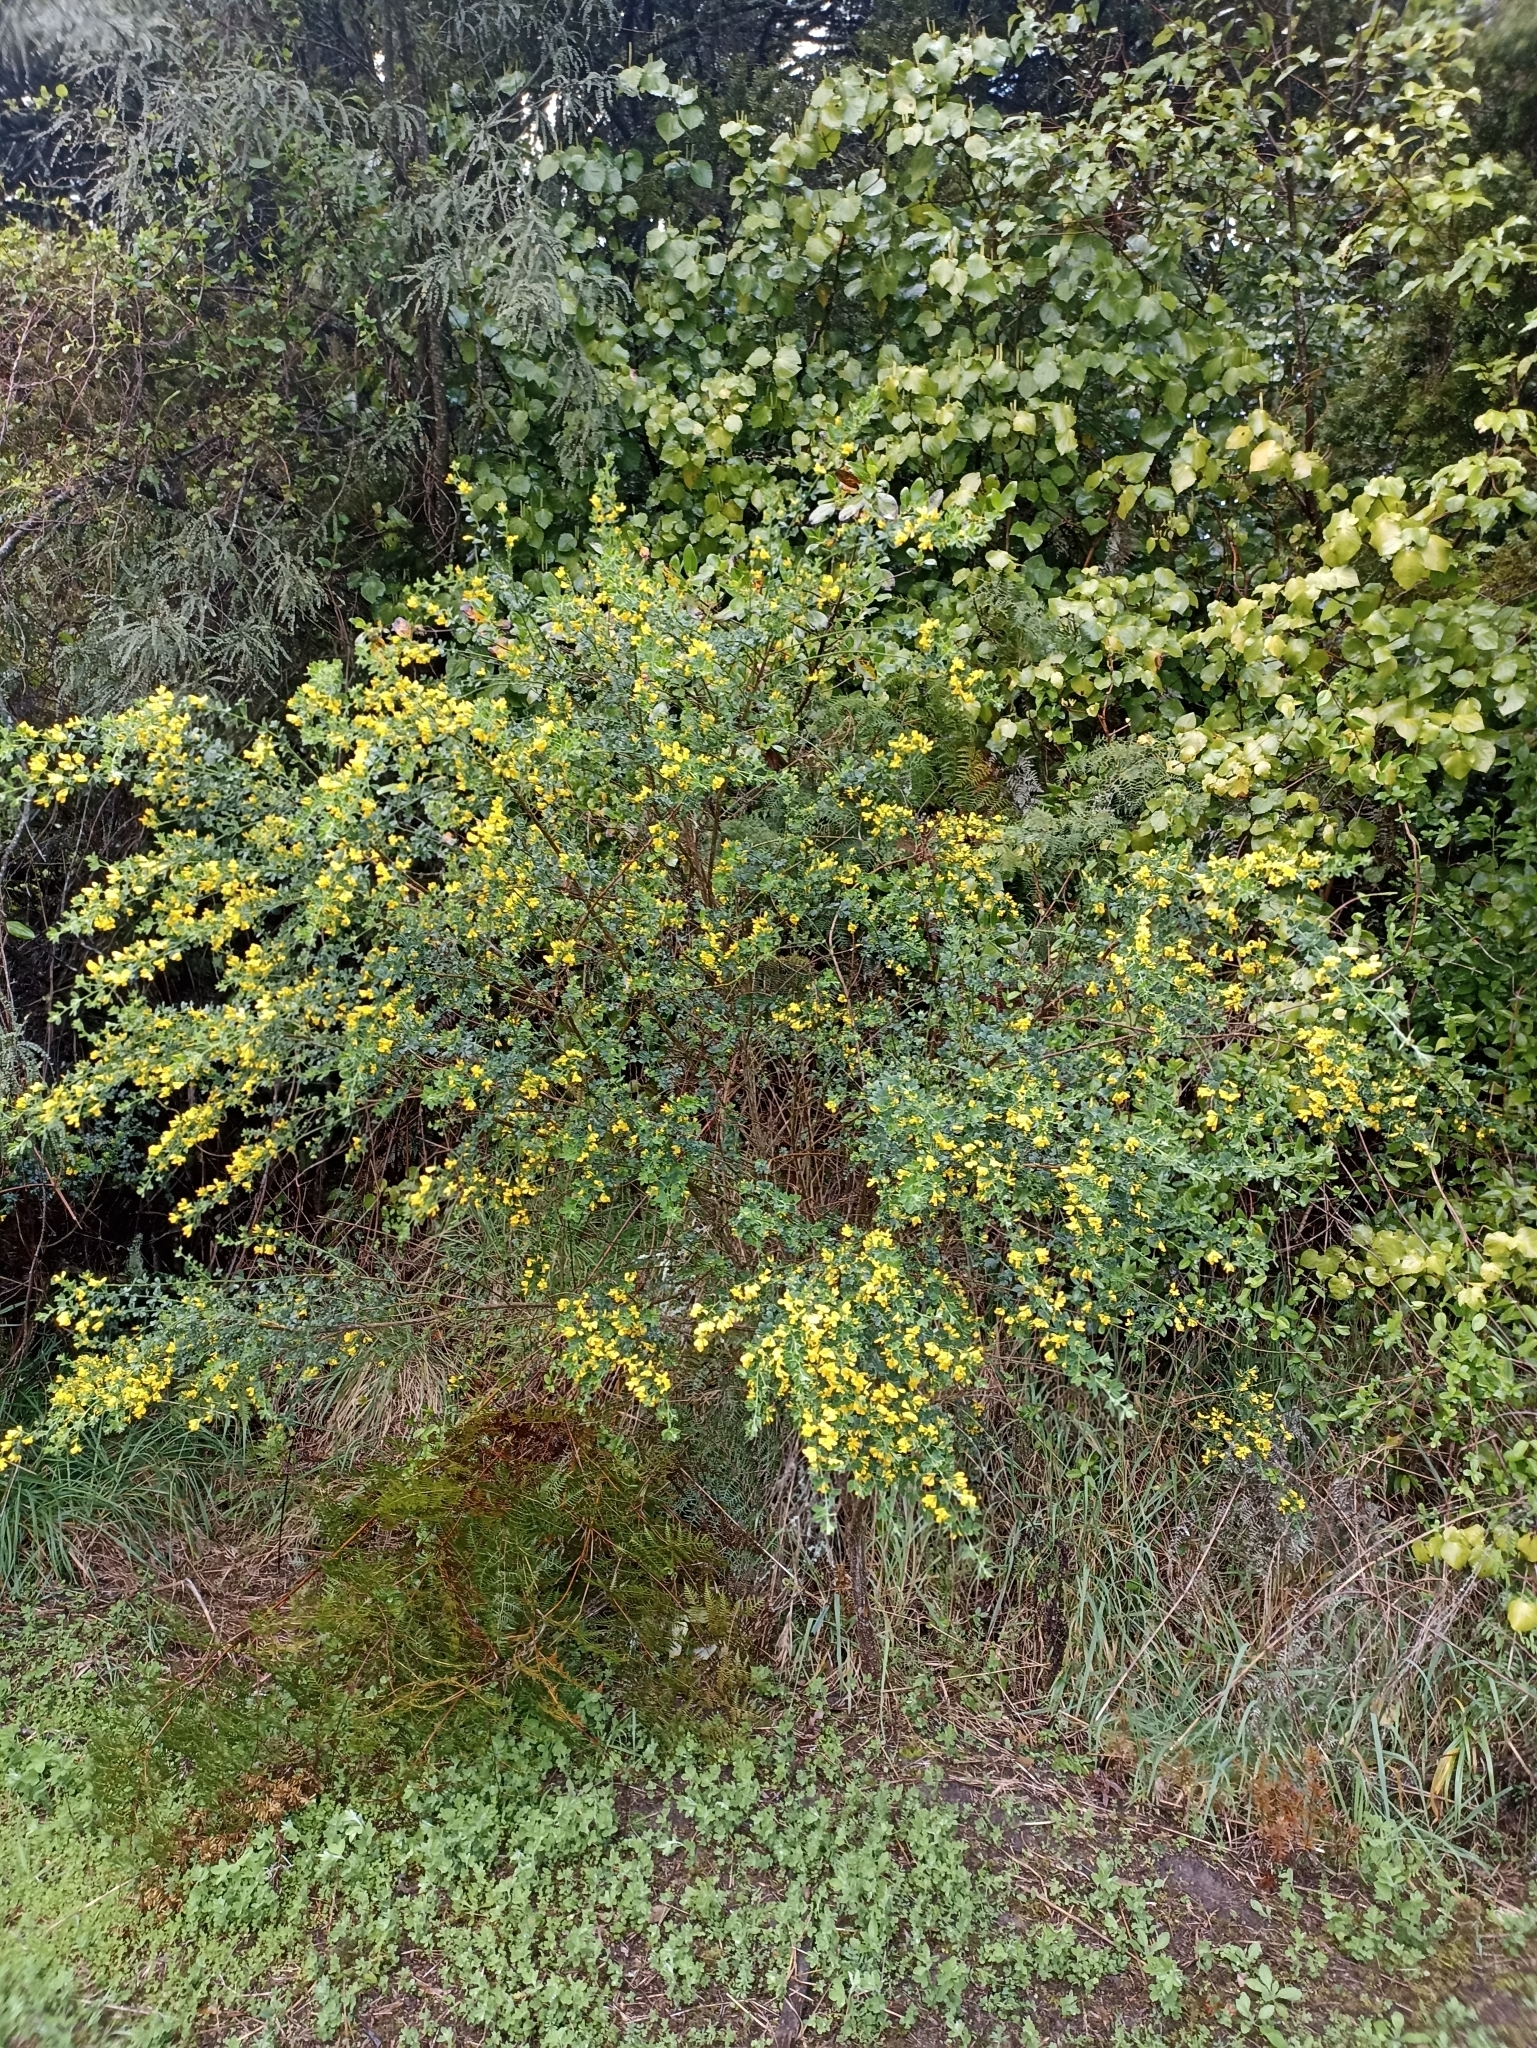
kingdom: Plantae
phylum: Tracheophyta
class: Magnoliopsida
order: Fabales
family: Fabaceae
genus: Genista
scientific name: Genista monspessulana
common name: Montpellier broom
